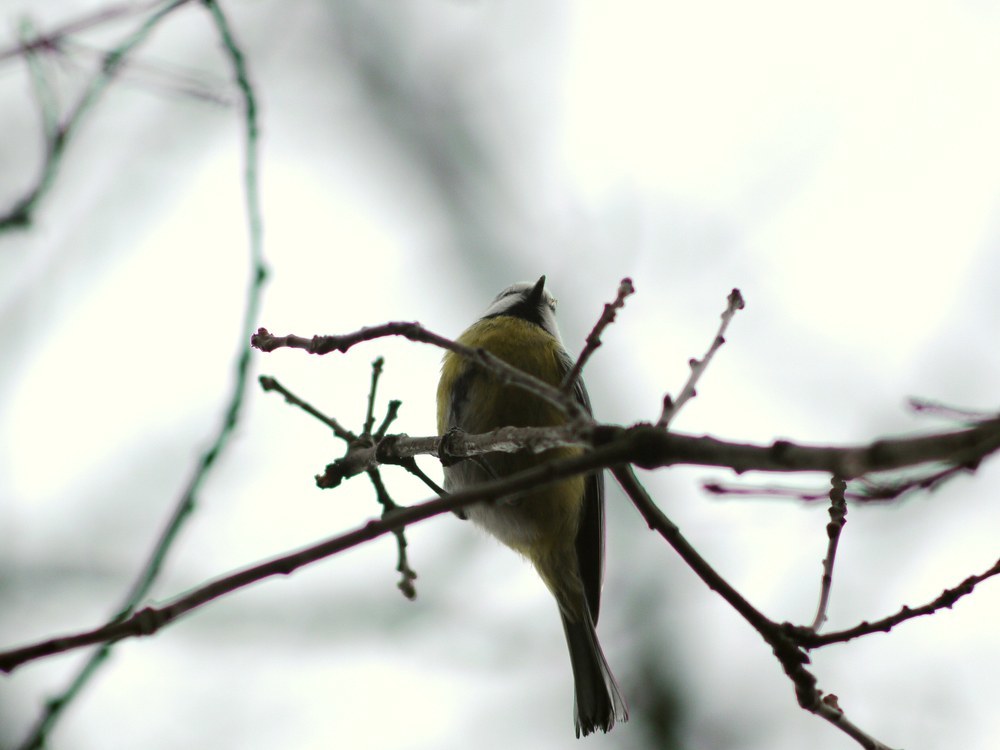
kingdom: Animalia
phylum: Chordata
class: Aves
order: Passeriformes
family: Paridae
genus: Cyanistes
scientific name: Cyanistes caeruleus
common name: Eurasian blue tit
